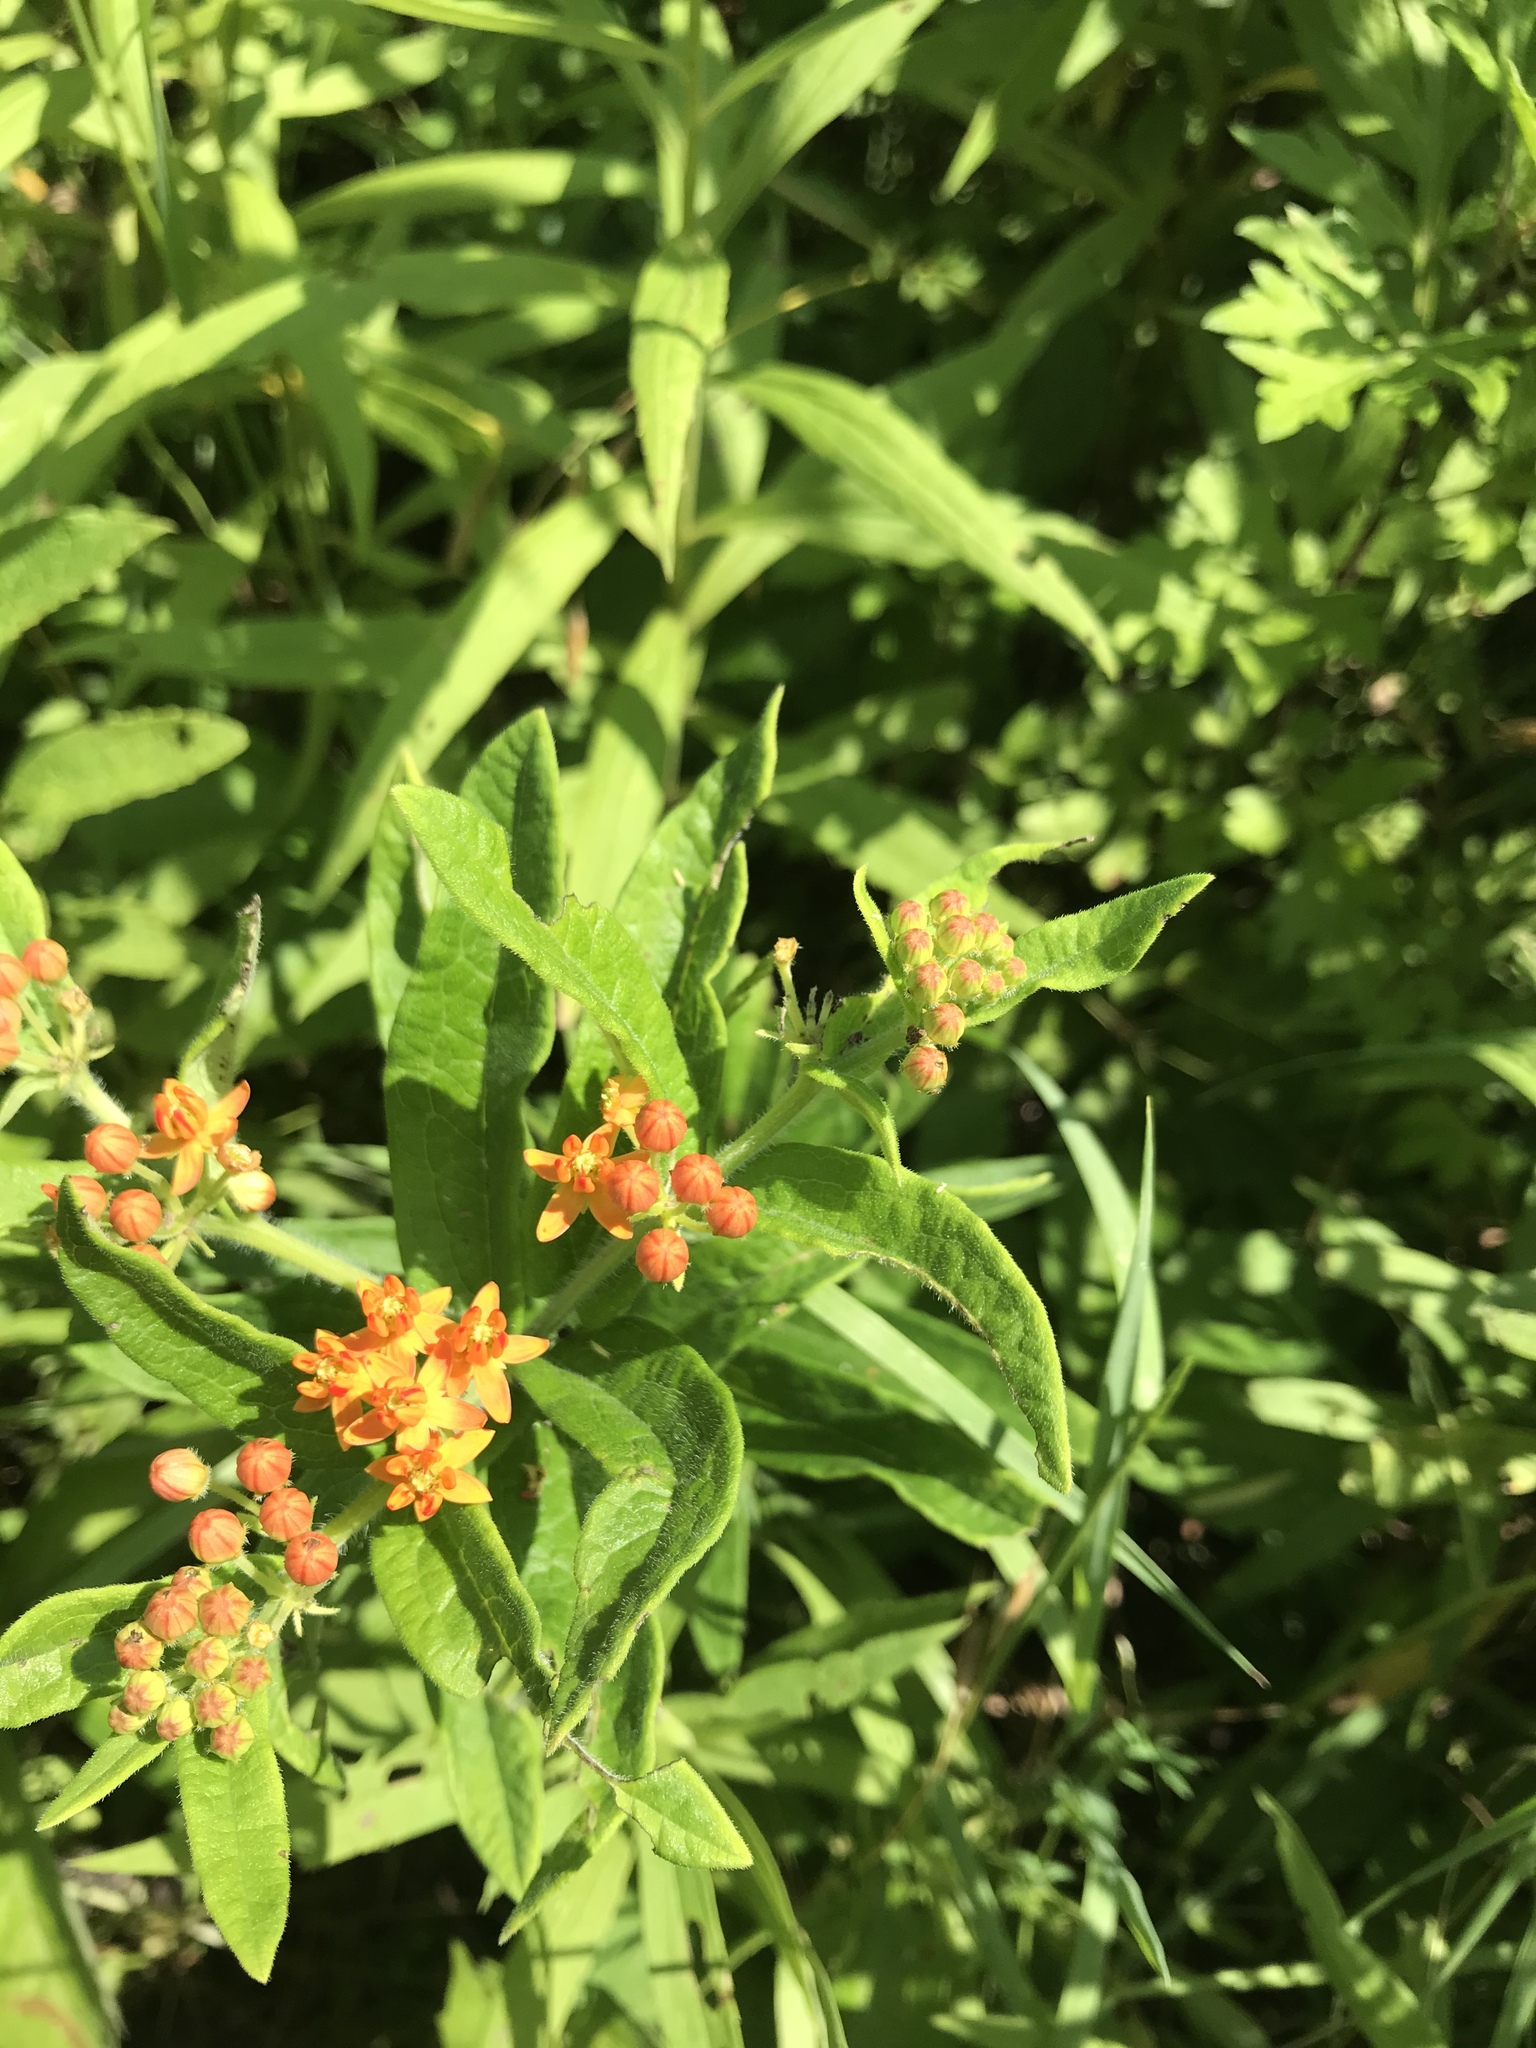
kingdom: Plantae
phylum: Tracheophyta
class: Magnoliopsida
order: Gentianales
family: Apocynaceae
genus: Asclepias
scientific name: Asclepias tuberosa
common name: Butterfly milkweed
